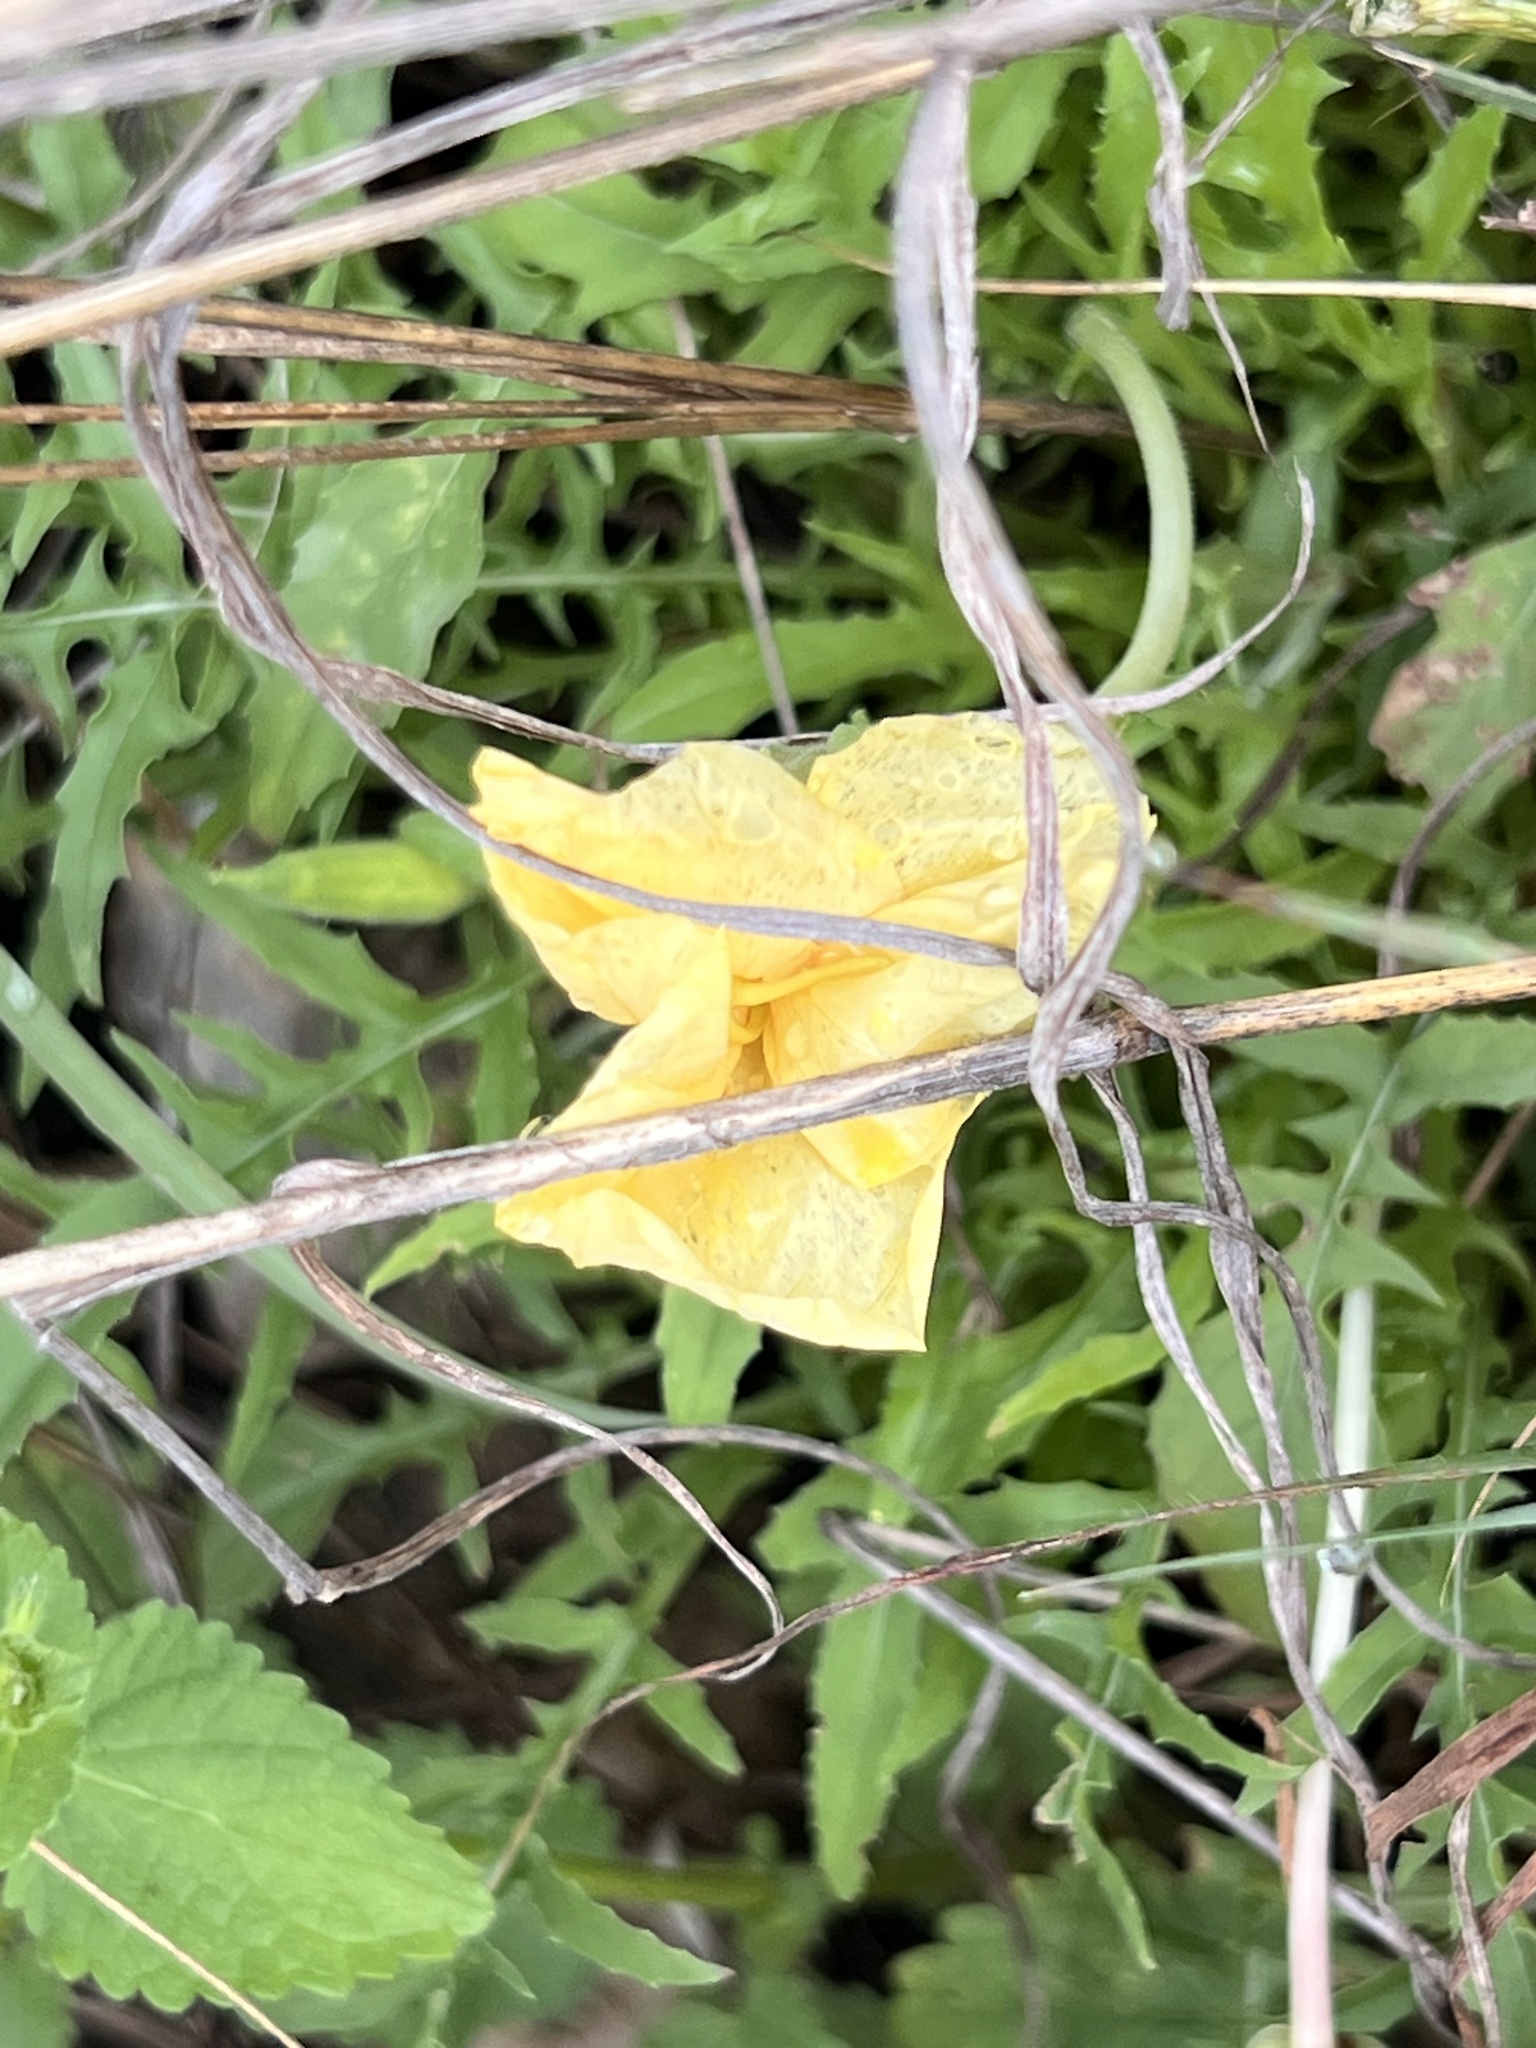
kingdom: Plantae
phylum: Tracheophyta
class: Magnoliopsida
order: Myrtales
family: Onagraceae
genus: Oenothera
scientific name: Oenothera triloba
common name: Sessile evening-primrose
